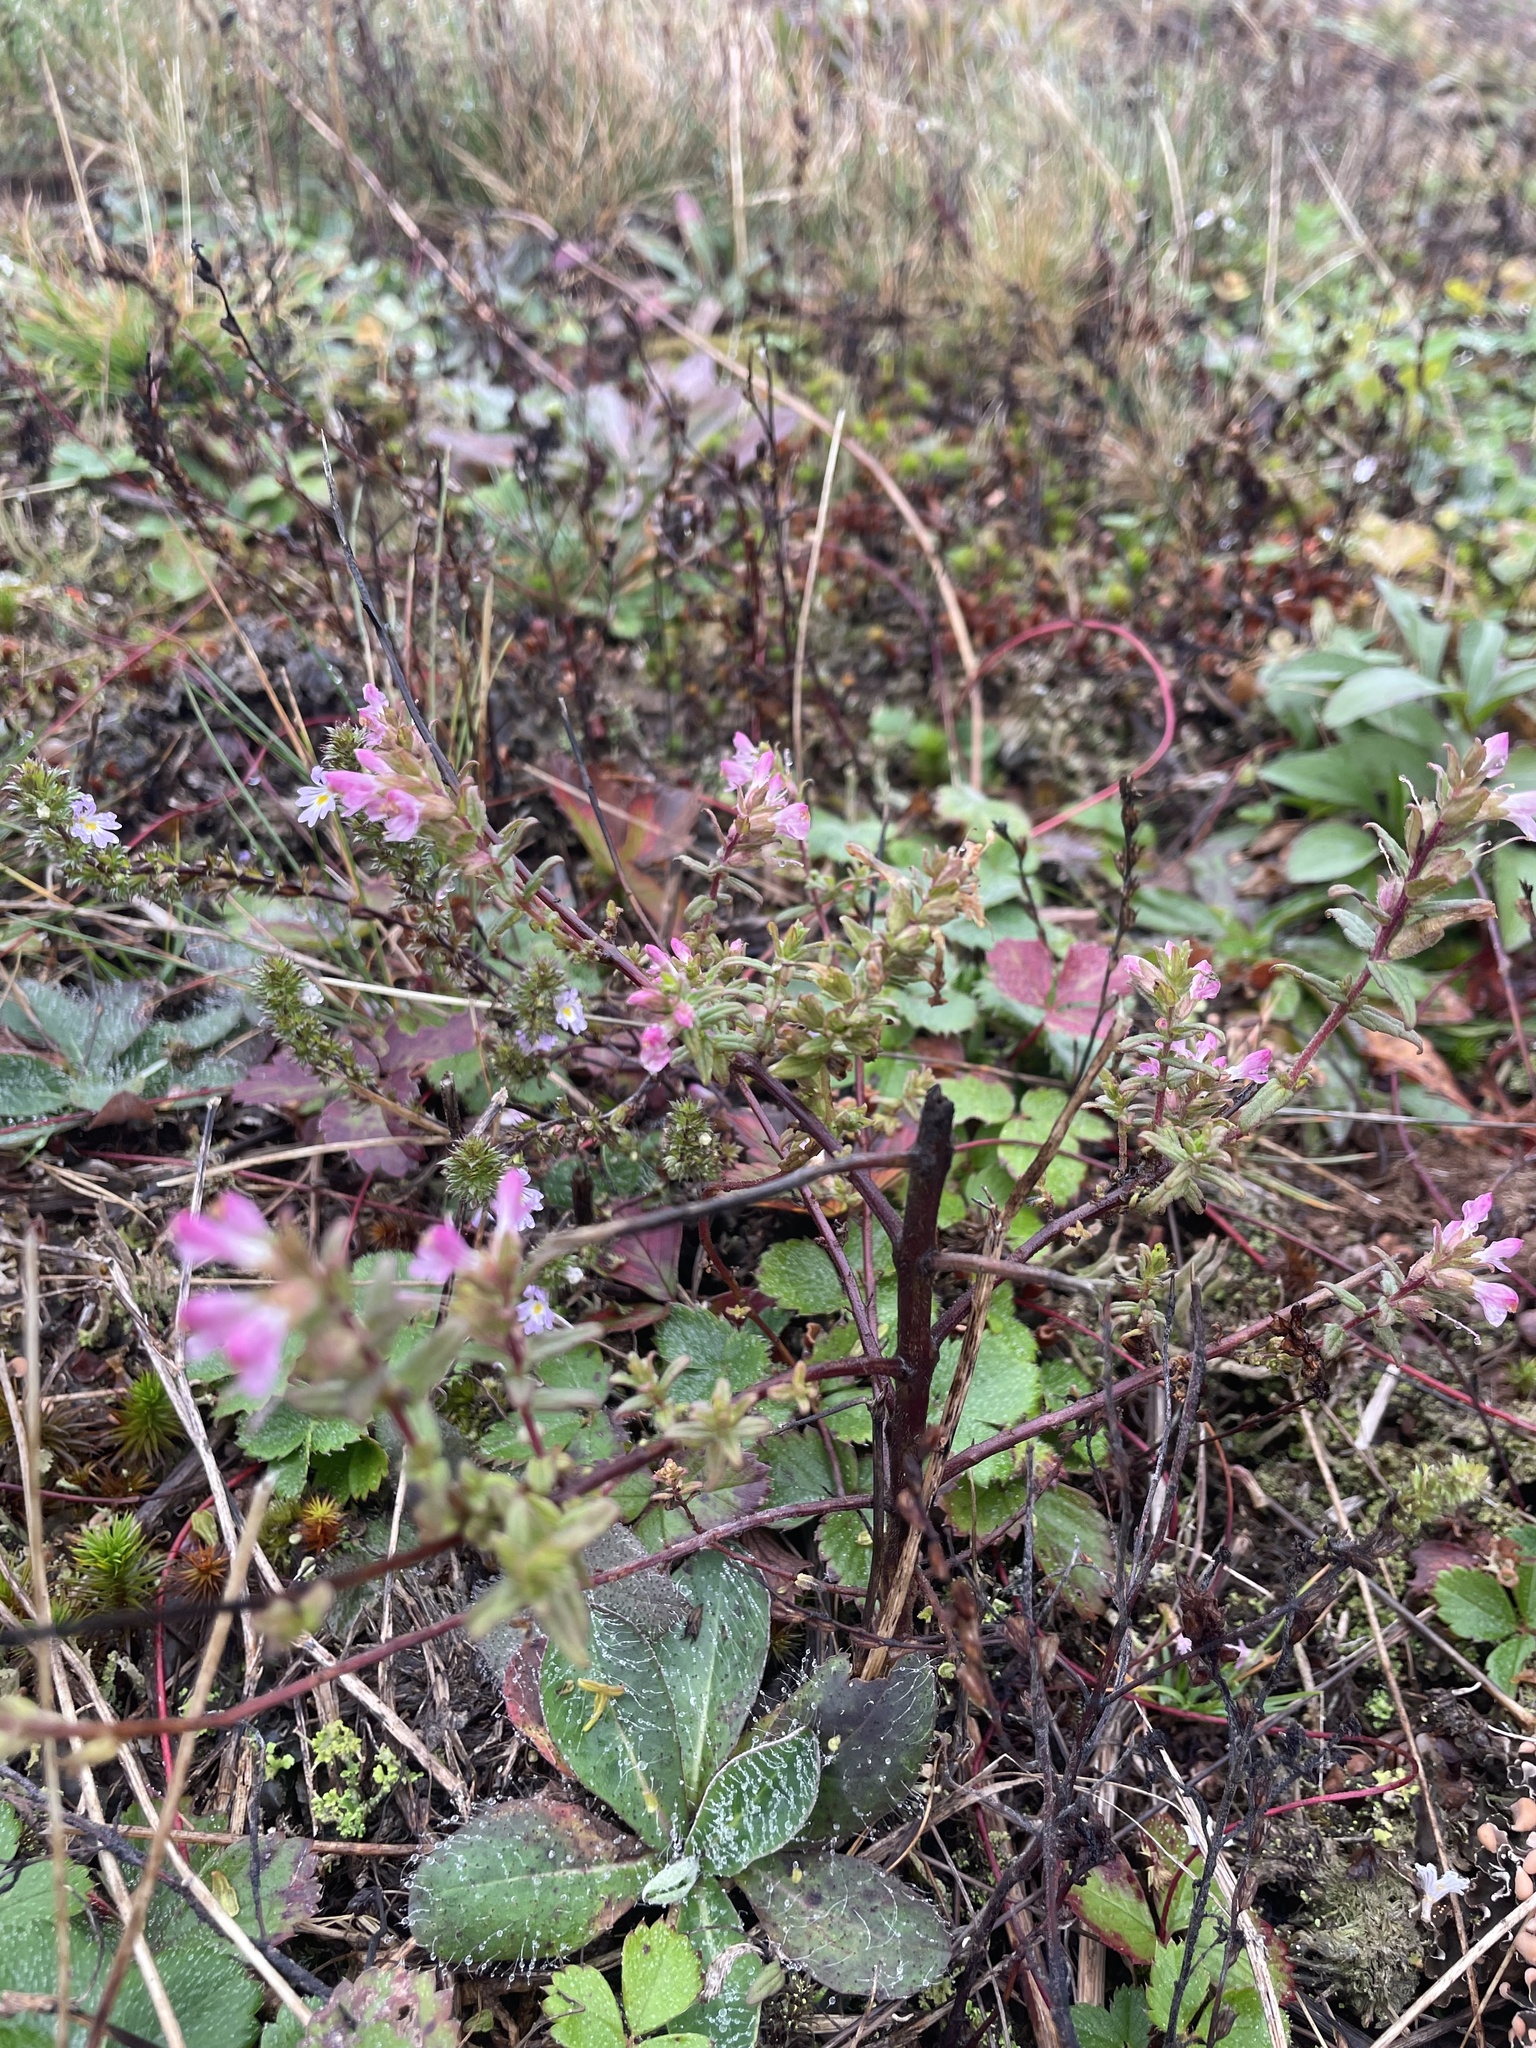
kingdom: Plantae
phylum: Tracheophyta
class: Magnoliopsida
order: Lamiales
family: Orobanchaceae
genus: Odontites
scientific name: Odontites vulgaris
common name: Broomrape
